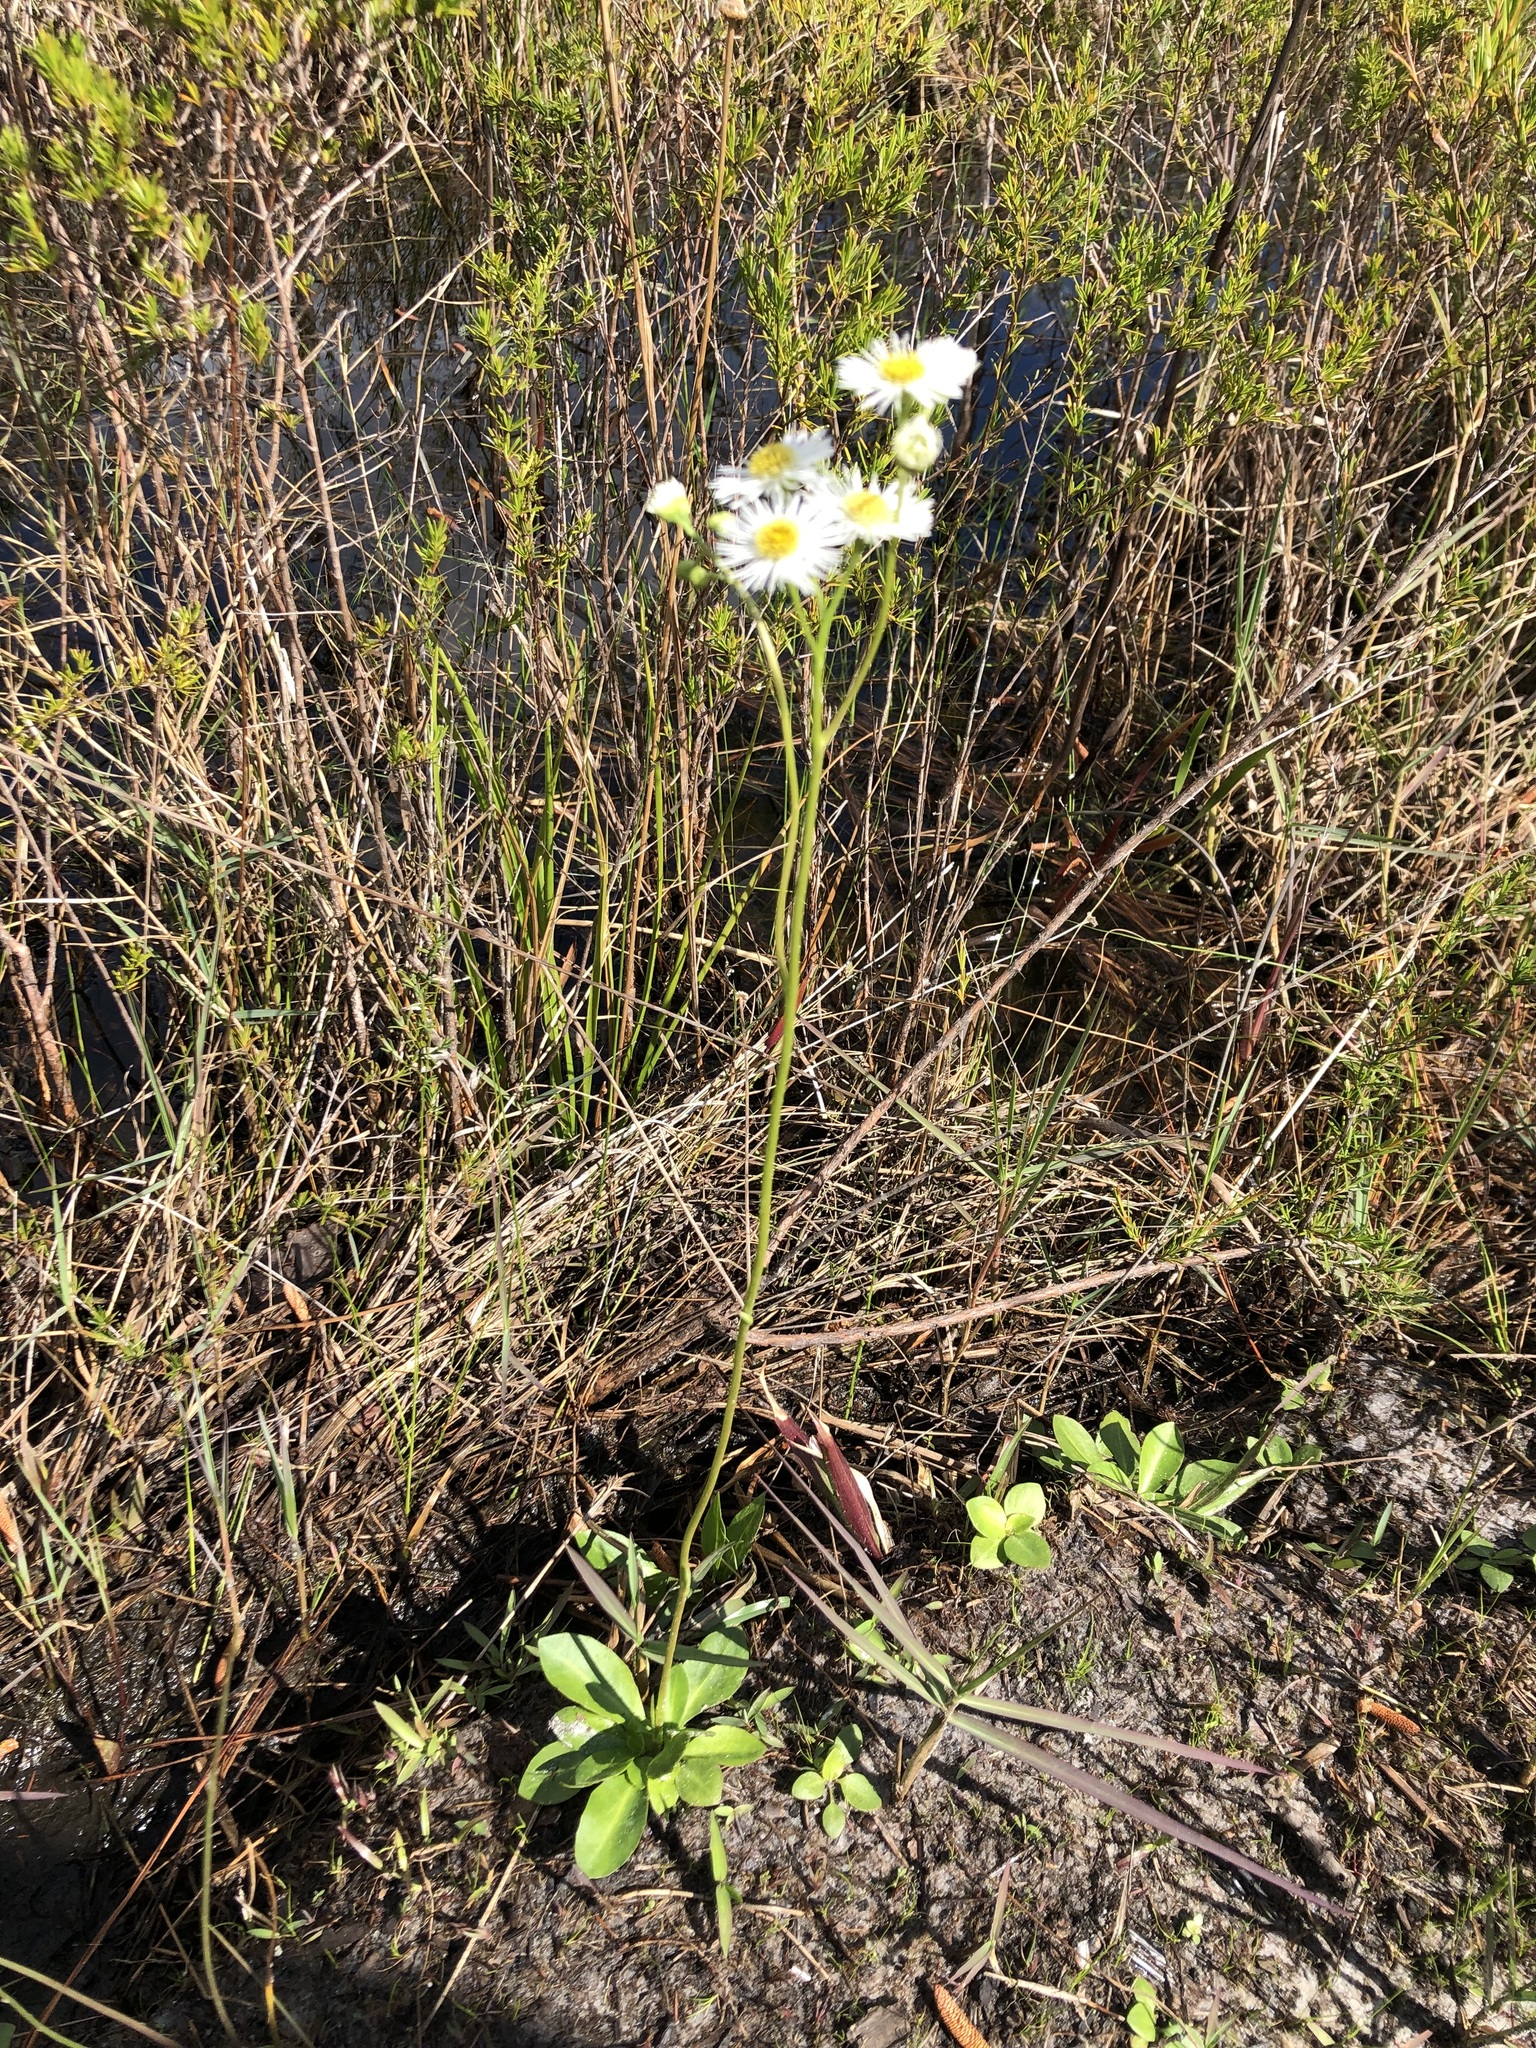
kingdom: Plantae
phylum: Tracheophyta
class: Magnoliopsida
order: Asterales
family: Asteraceae
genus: Erigeron
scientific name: Erigeron vernus
